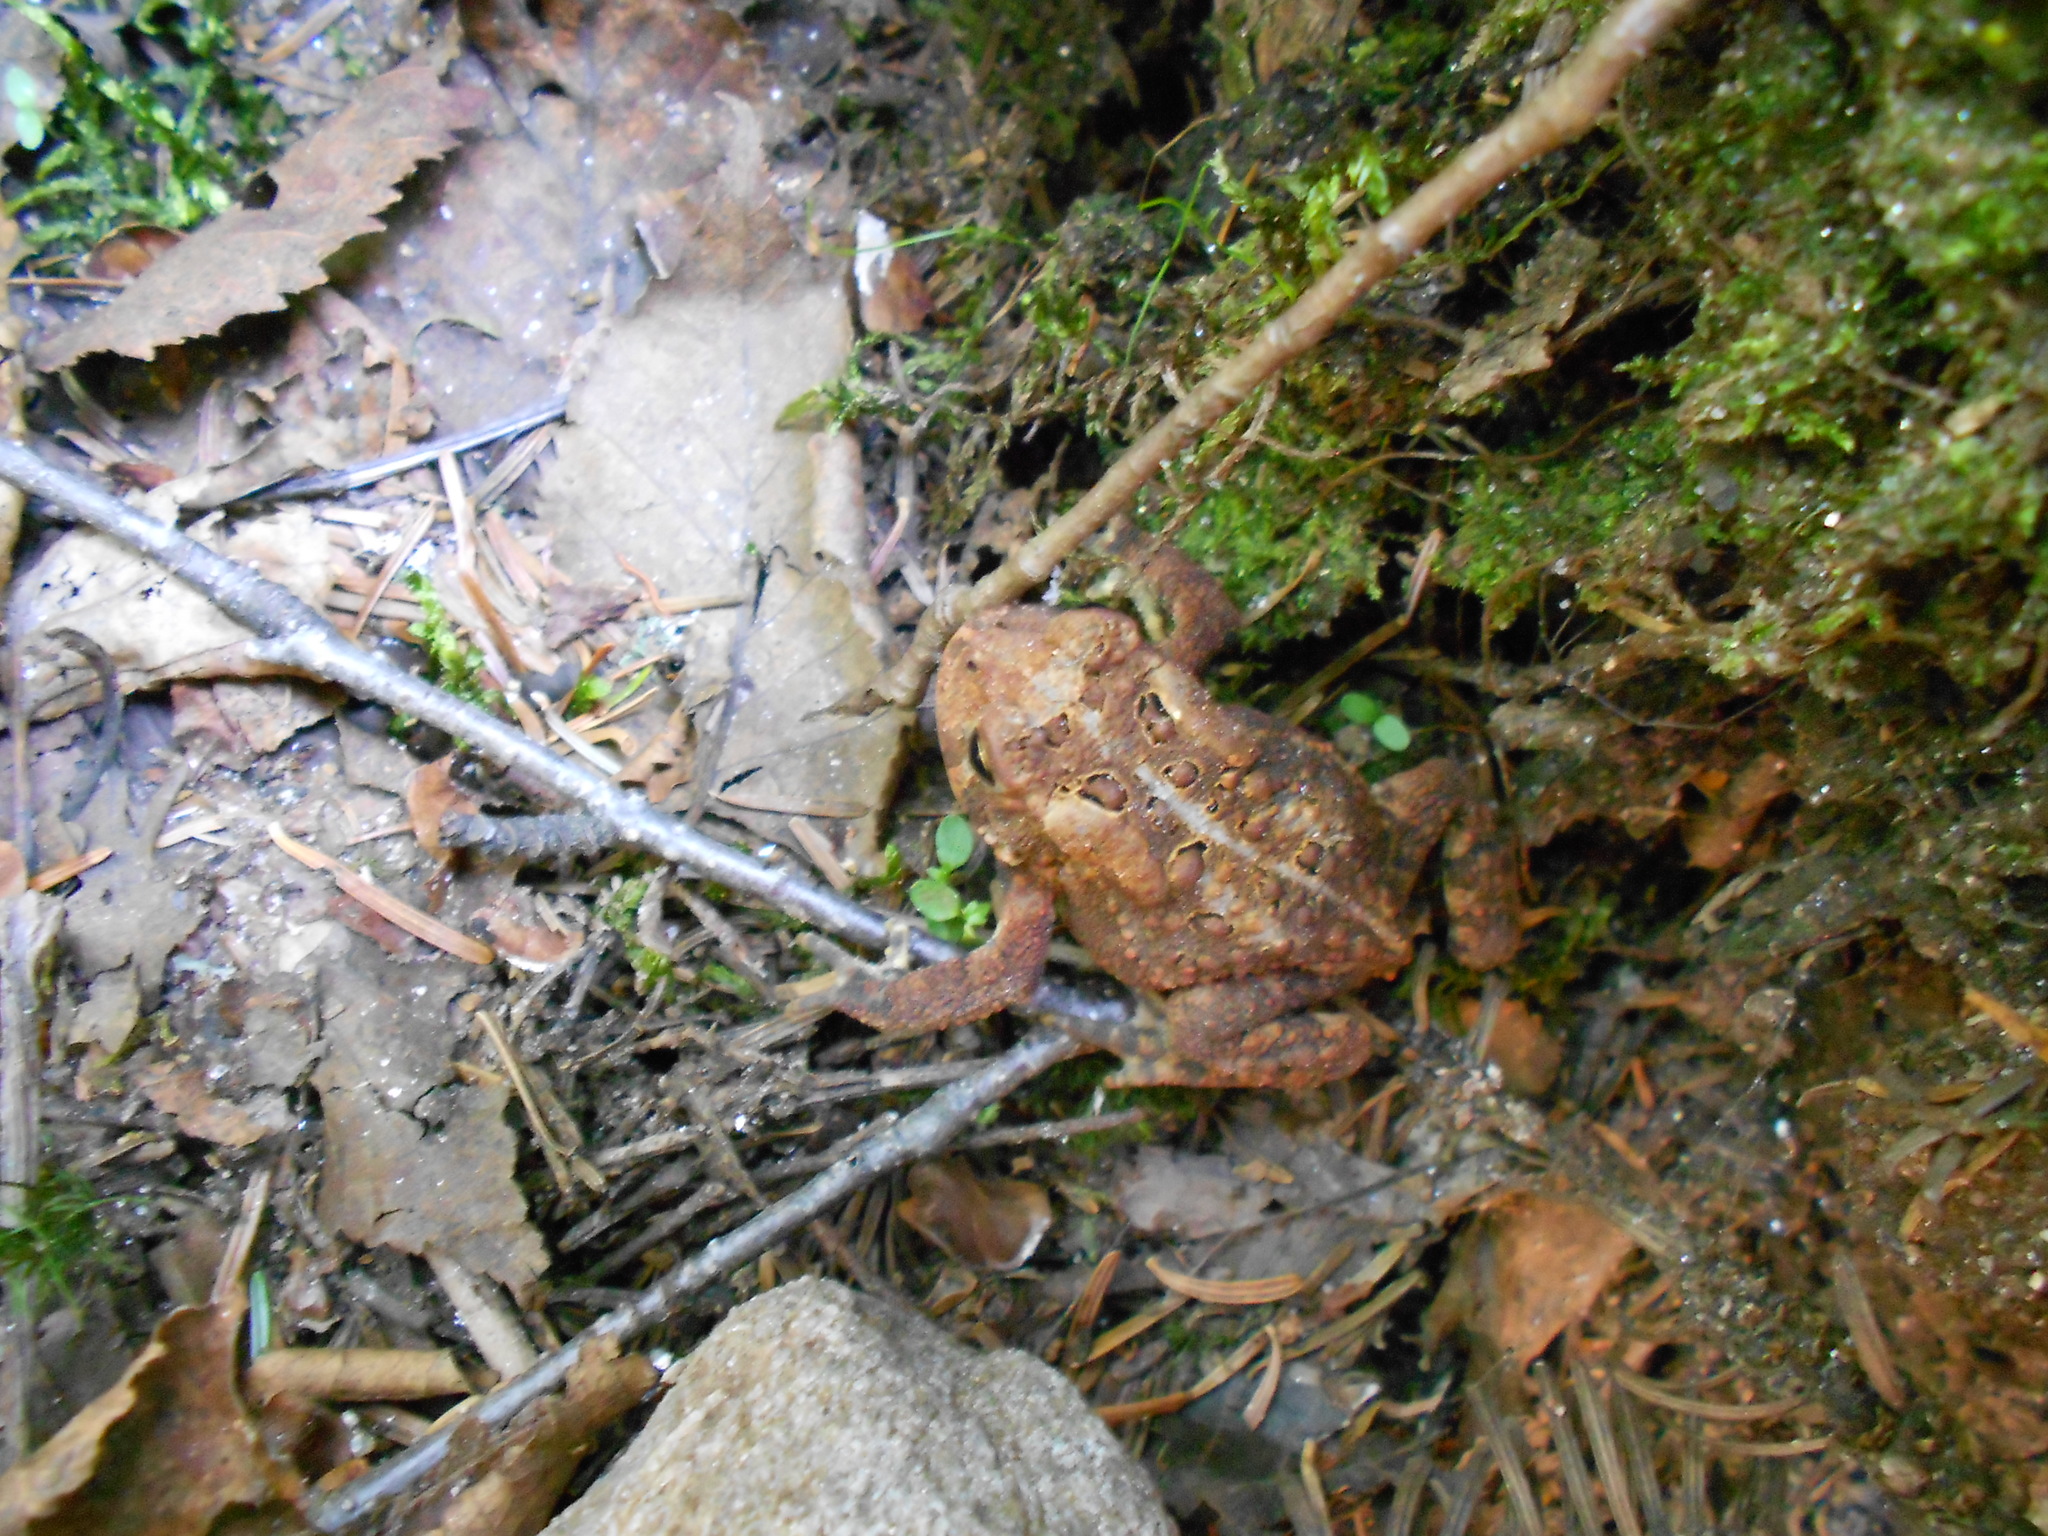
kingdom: Animalia
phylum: Chordata
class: Amphibia
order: Anura
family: Bufonidae
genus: Anaxyrus
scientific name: Anaxyrus americanus
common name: American toad
